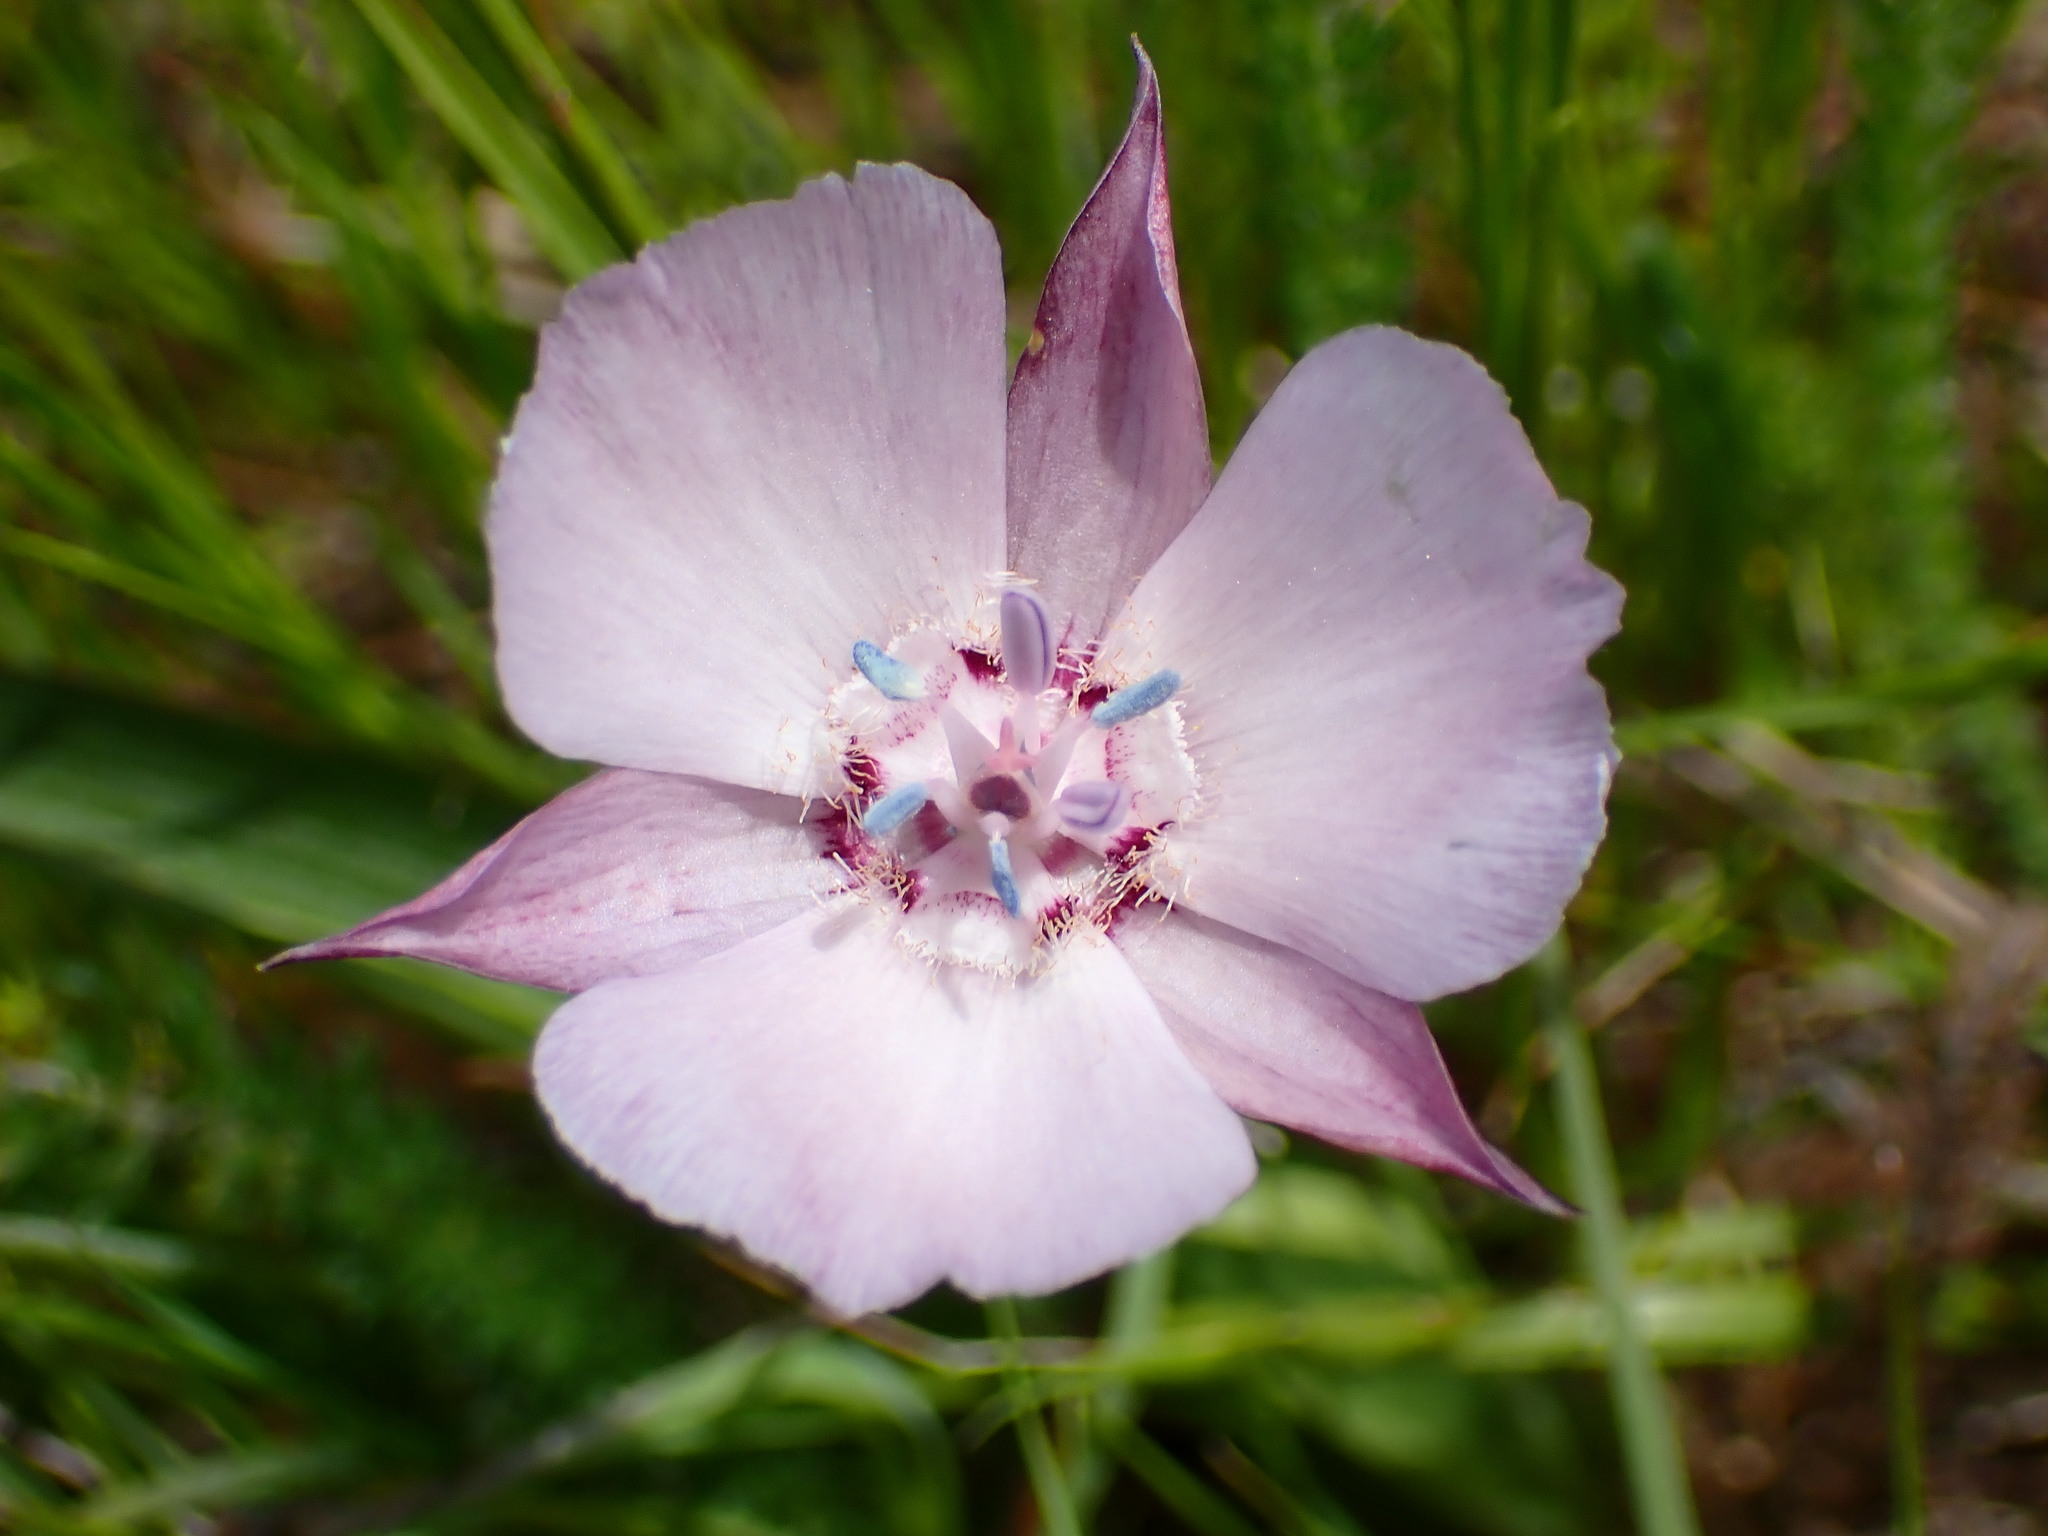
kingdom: Plantae
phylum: Tracheophyta
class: Liliopsida
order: Liliales
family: Liliaceae
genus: Calochortus
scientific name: Calochortus umbellatus
